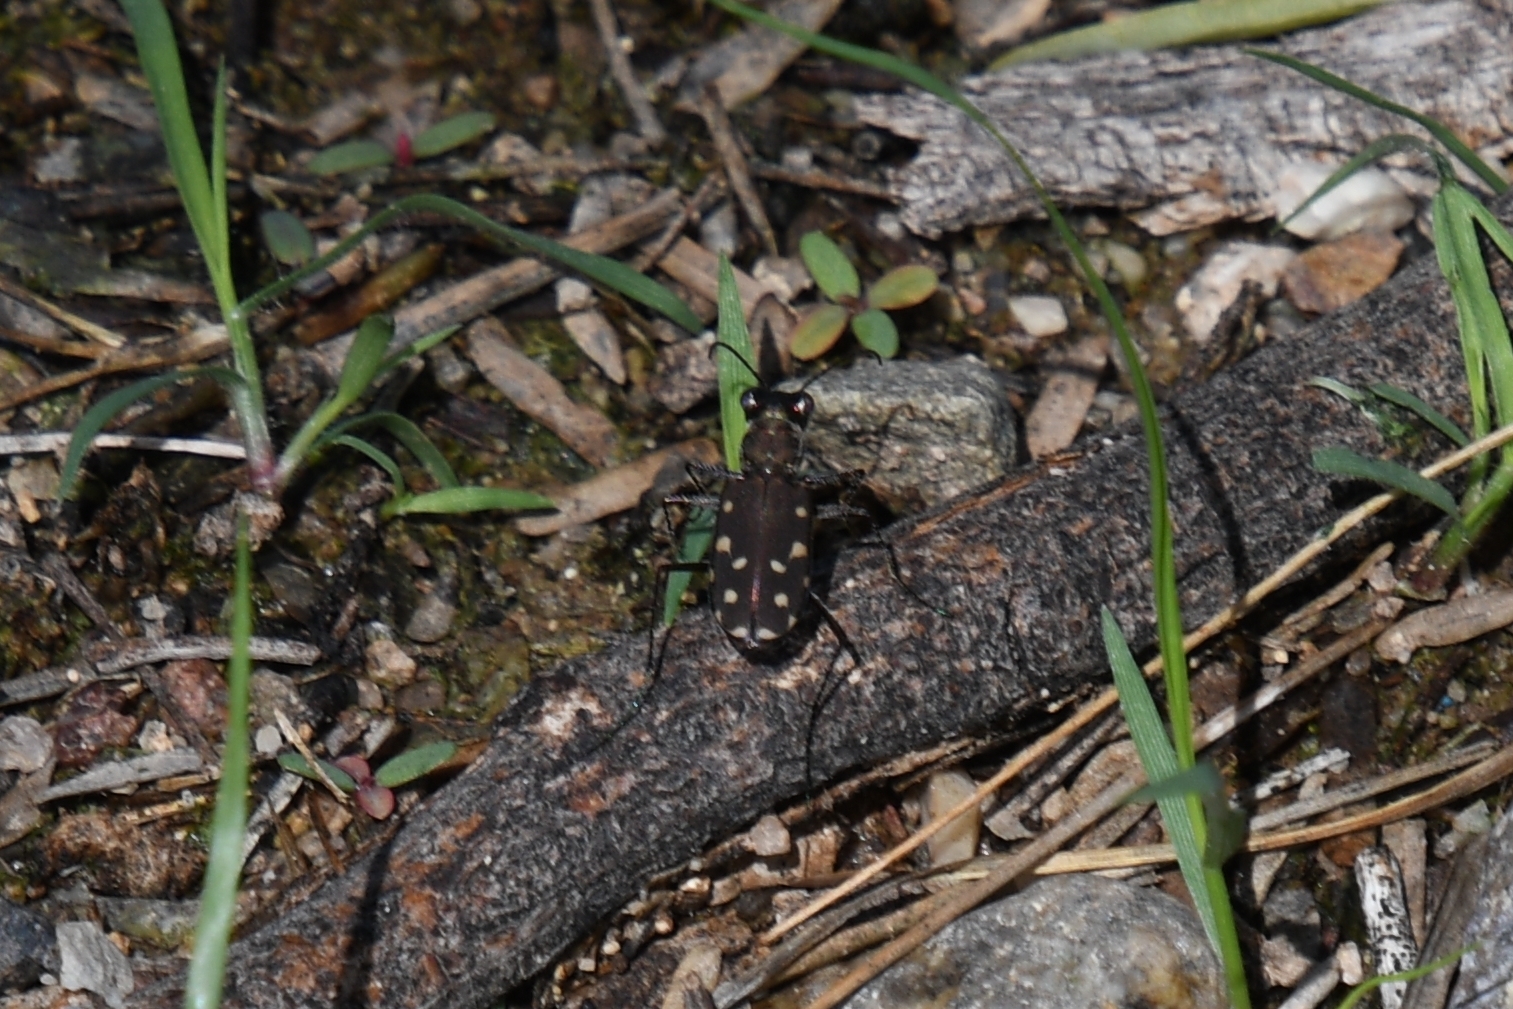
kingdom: Animalia
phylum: Arthropoda
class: Insecta
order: Coleoptera
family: Carabidae
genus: Cicindela
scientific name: Cicindela sedecimpunctata
